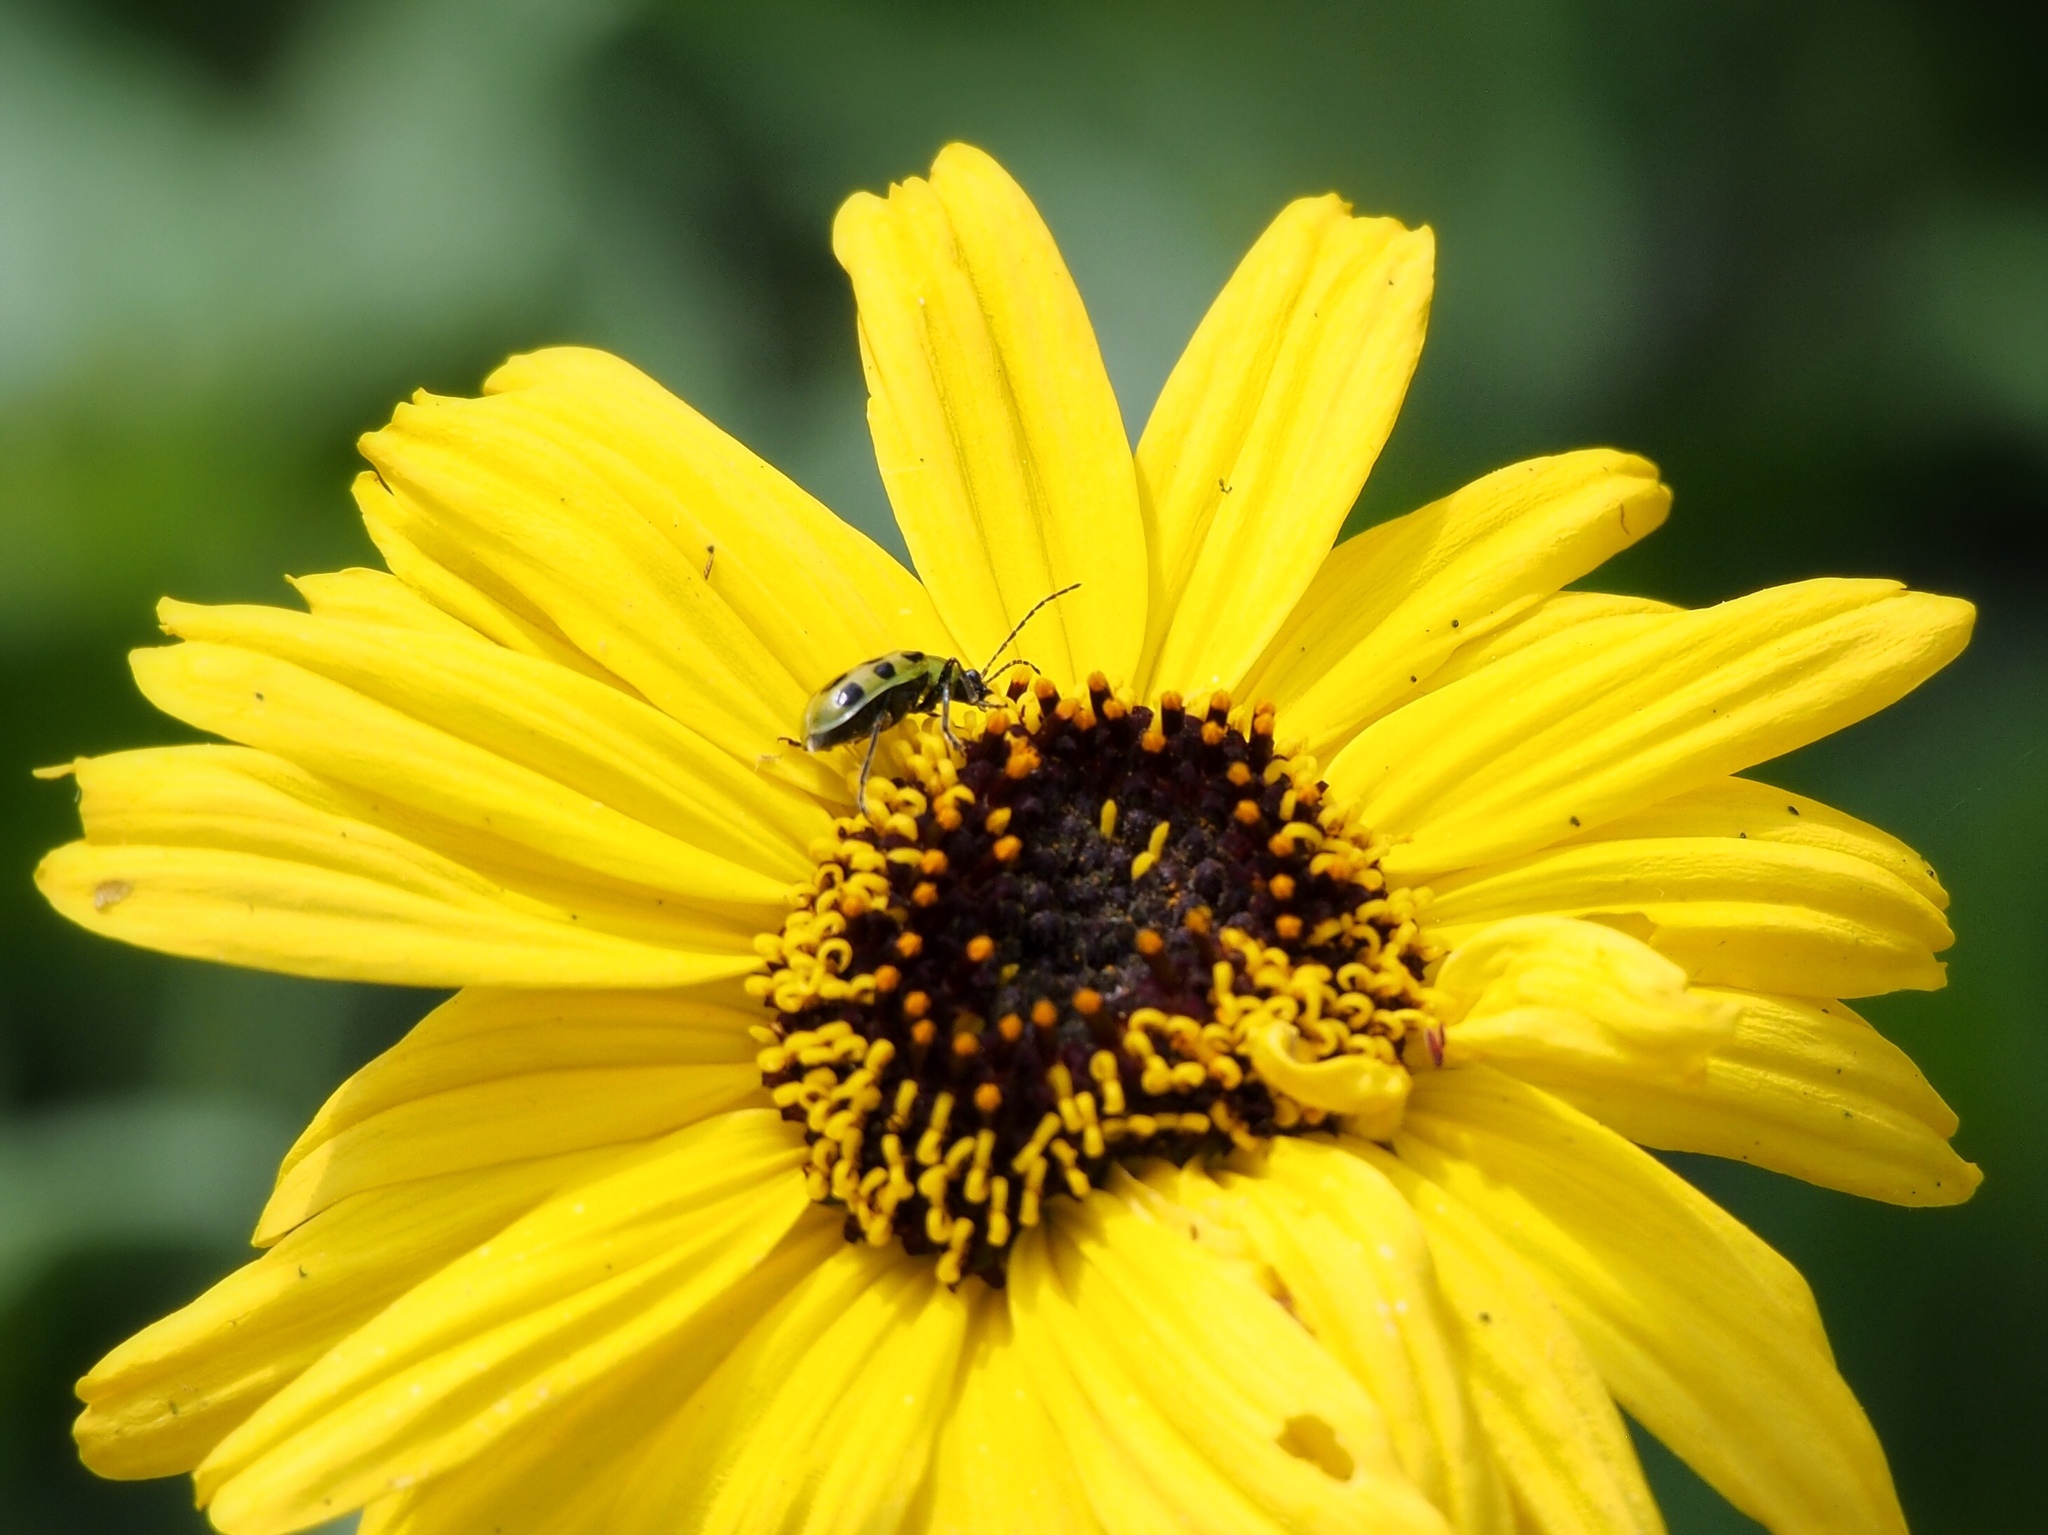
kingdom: Animalia
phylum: Arthropoda
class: Insecta
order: Coleoptera
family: Chrysomelidae
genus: Diabrotica
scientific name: Diabrotica undecimpunctata
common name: Spotted cucumber beetle
